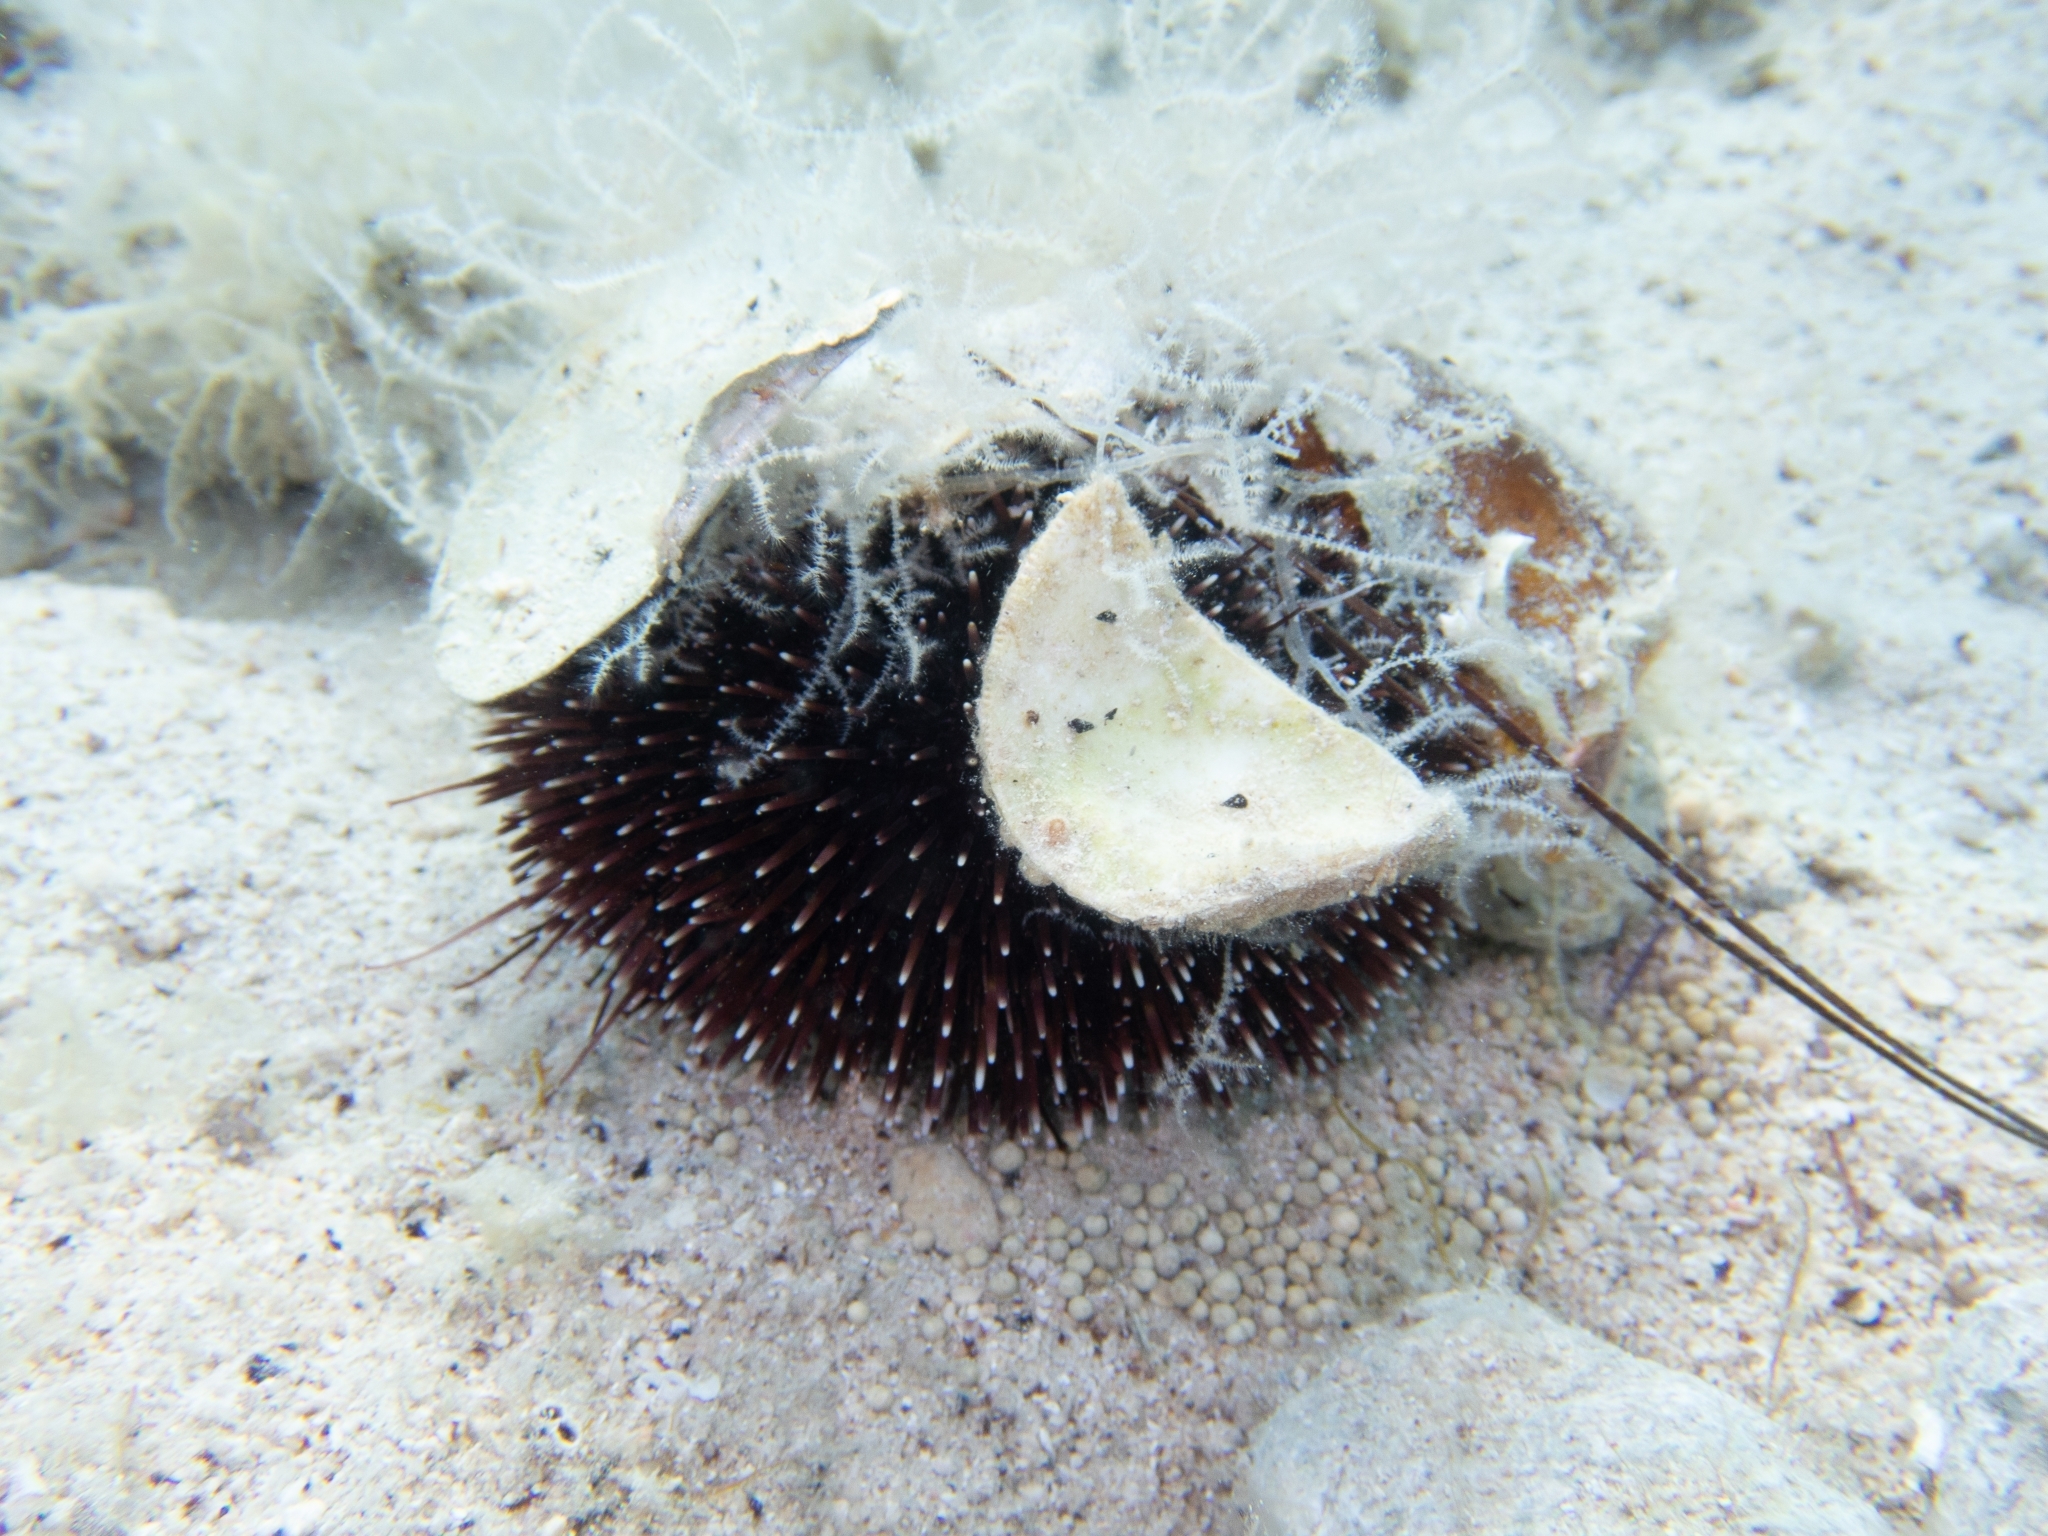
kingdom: Animalia
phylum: Echinodermata
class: Echinoidea
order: Camarodonta
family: Toxopneustidae
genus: Sphaerechinus
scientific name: Sphaerechinus granularis
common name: Violet sea urchin
